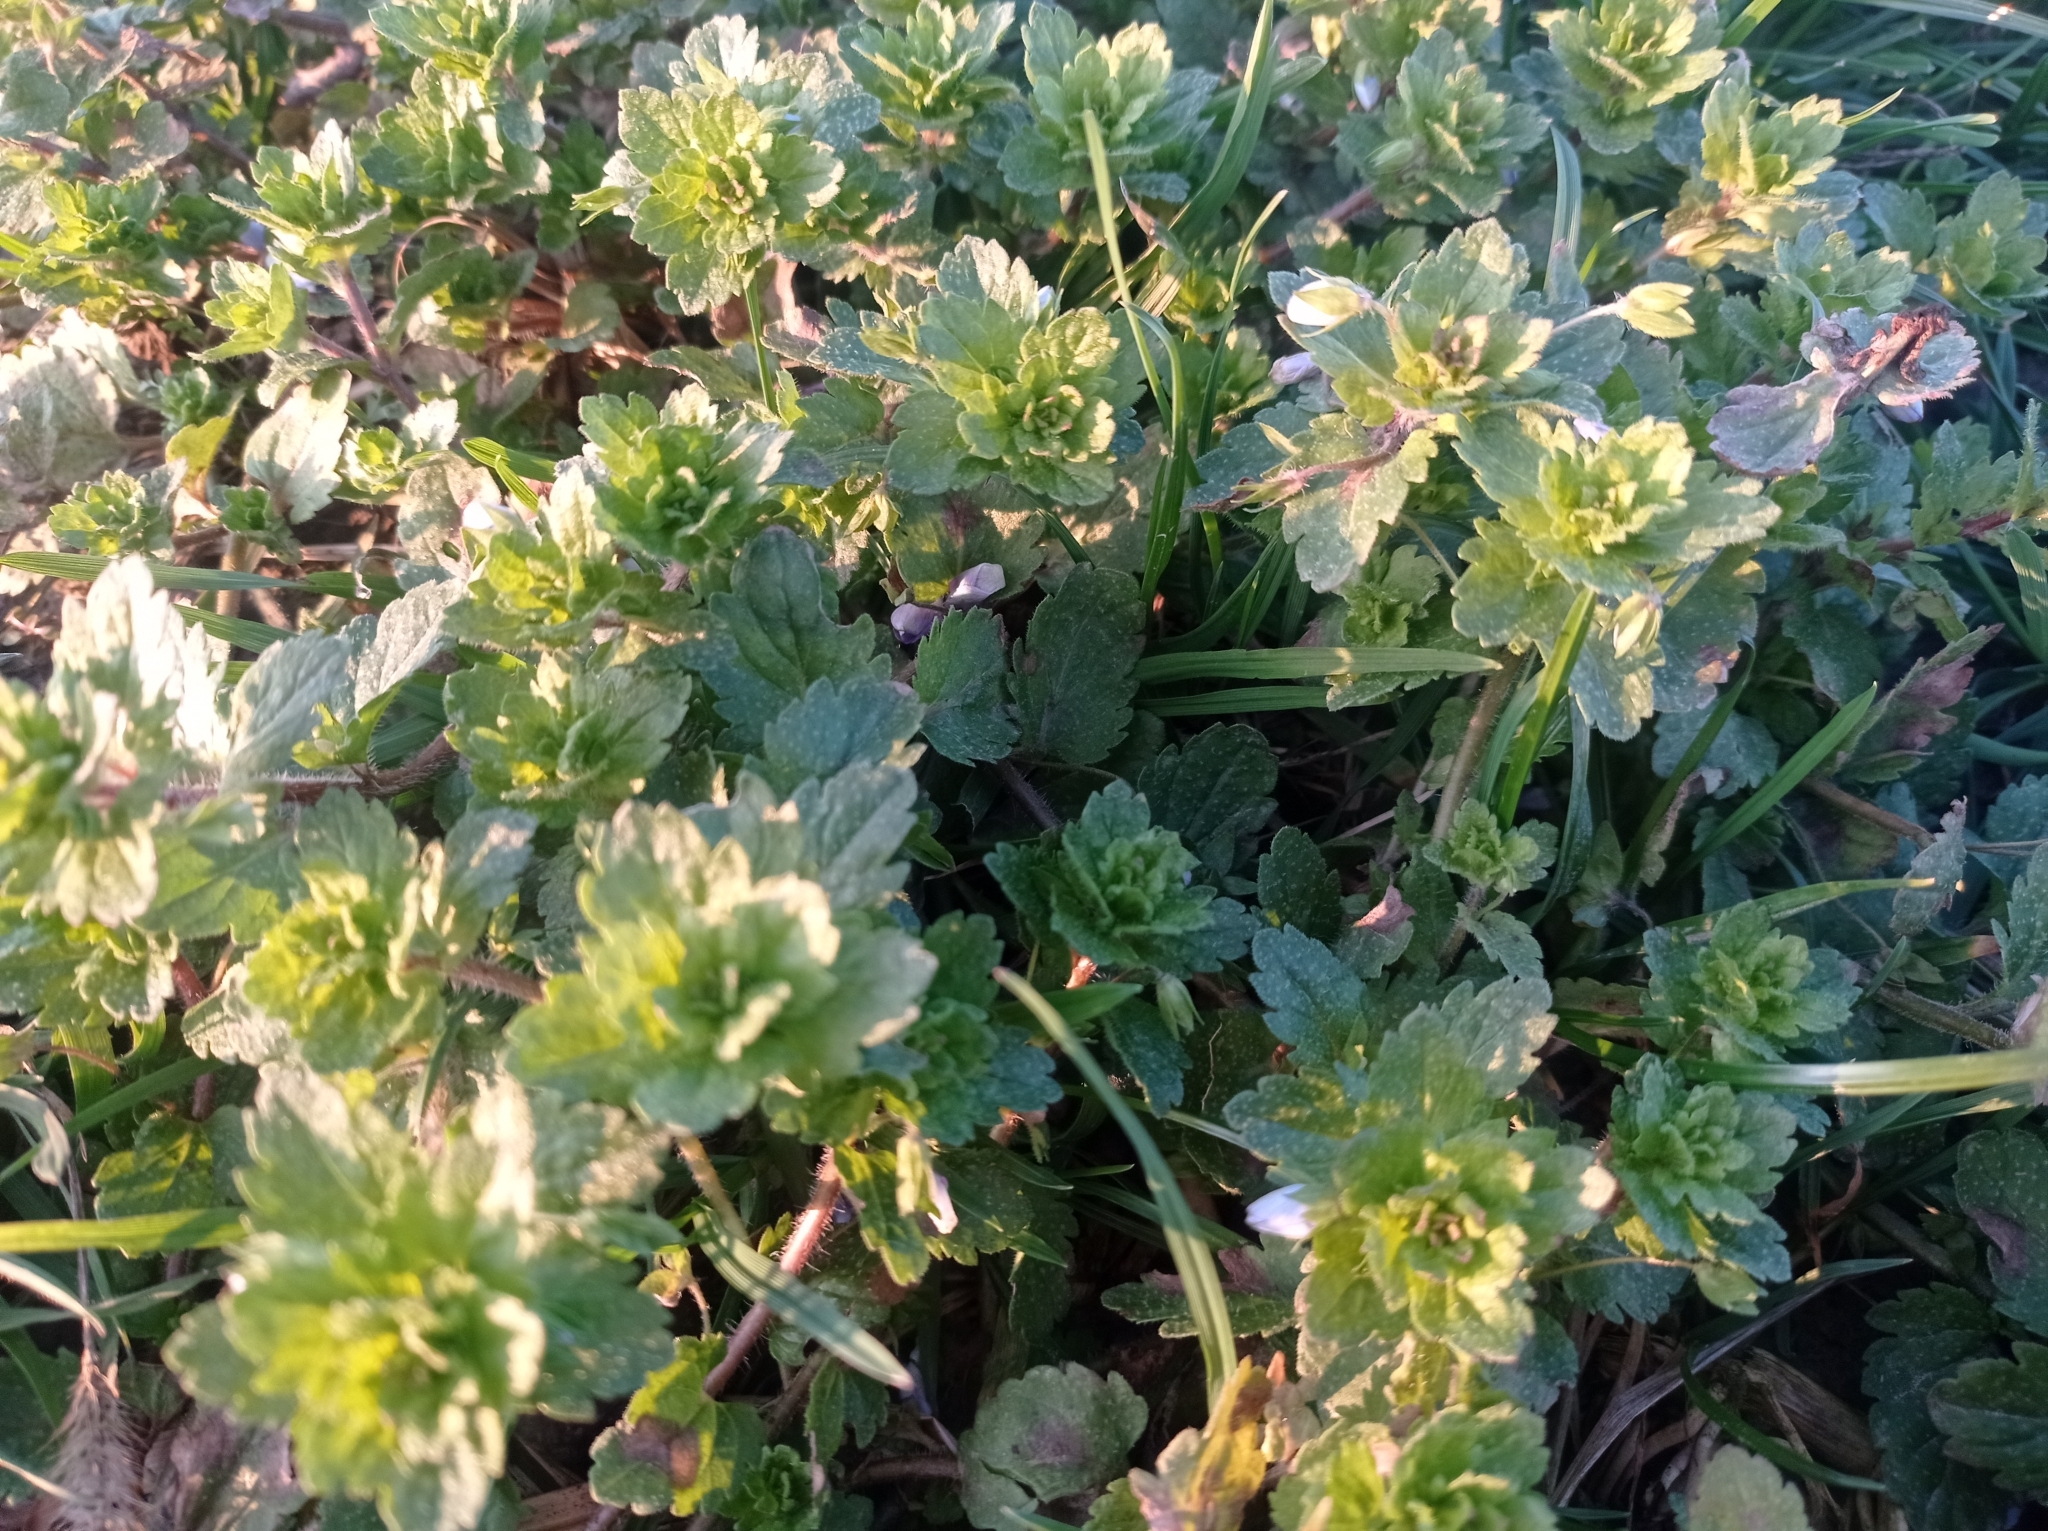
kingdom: Plantae
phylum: Tracheophyta
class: Magnoliopsida
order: Lamiales
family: Plantaginaceae
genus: Veronica
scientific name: Veronica persica
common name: Common field-speedwell
